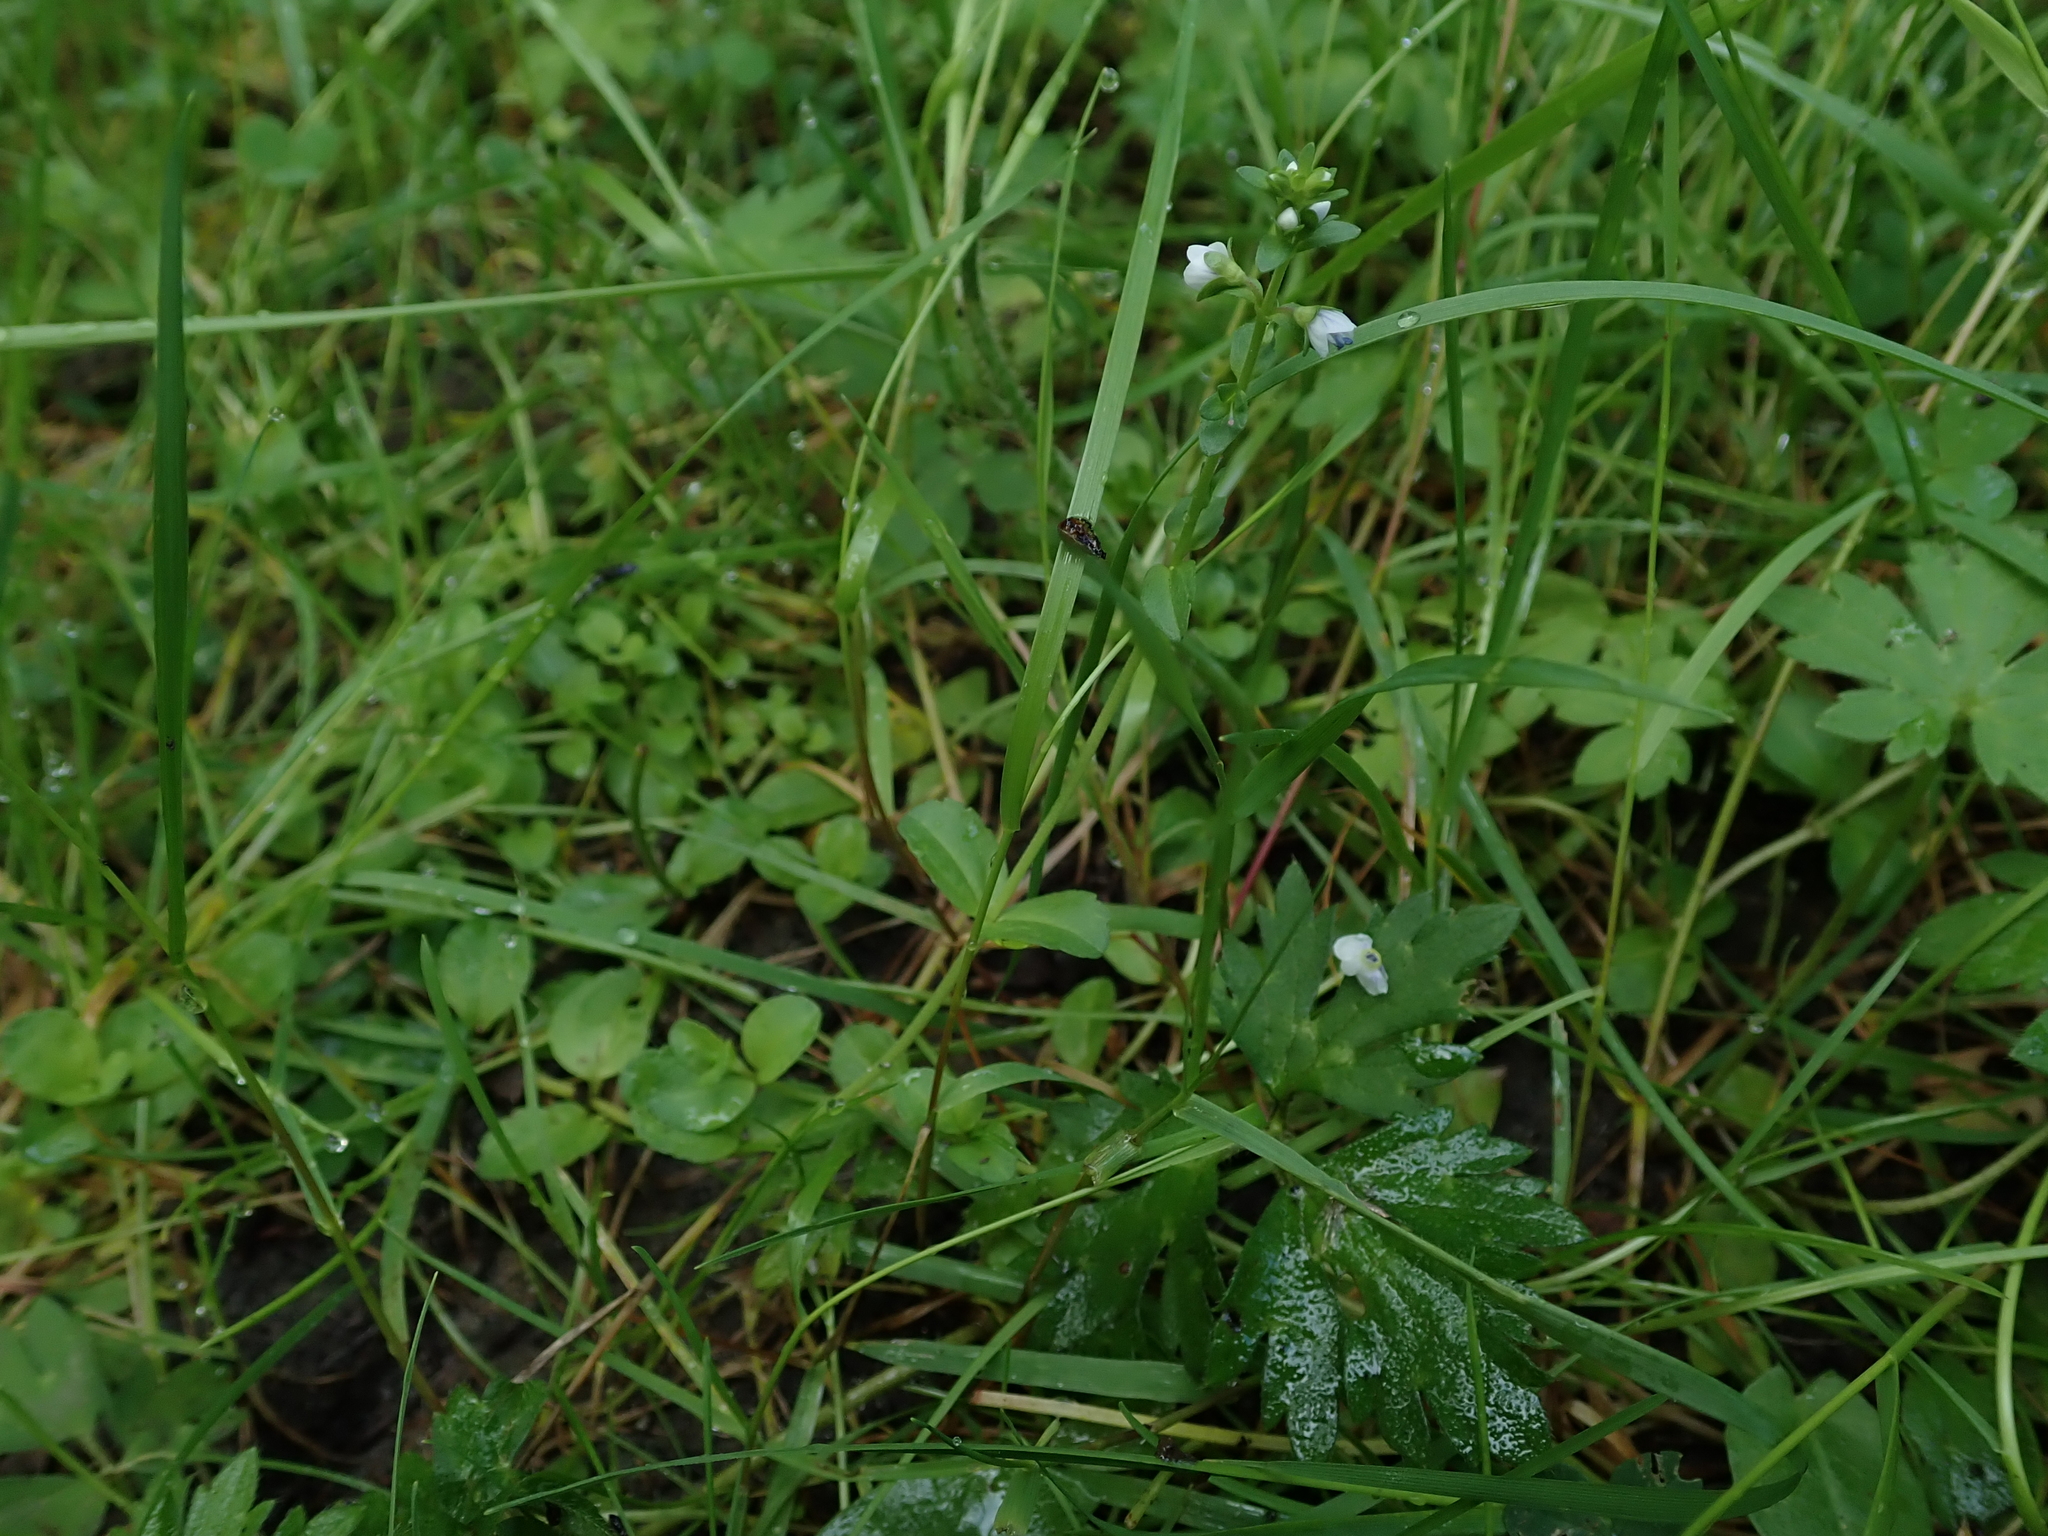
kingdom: Plantae
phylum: Tracheophyta
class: Magnoliopsida
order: Lamiales
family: Plantaginaceae
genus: Veronica
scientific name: Veronica serpyllifolia
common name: Thyme-leaved speedwell
